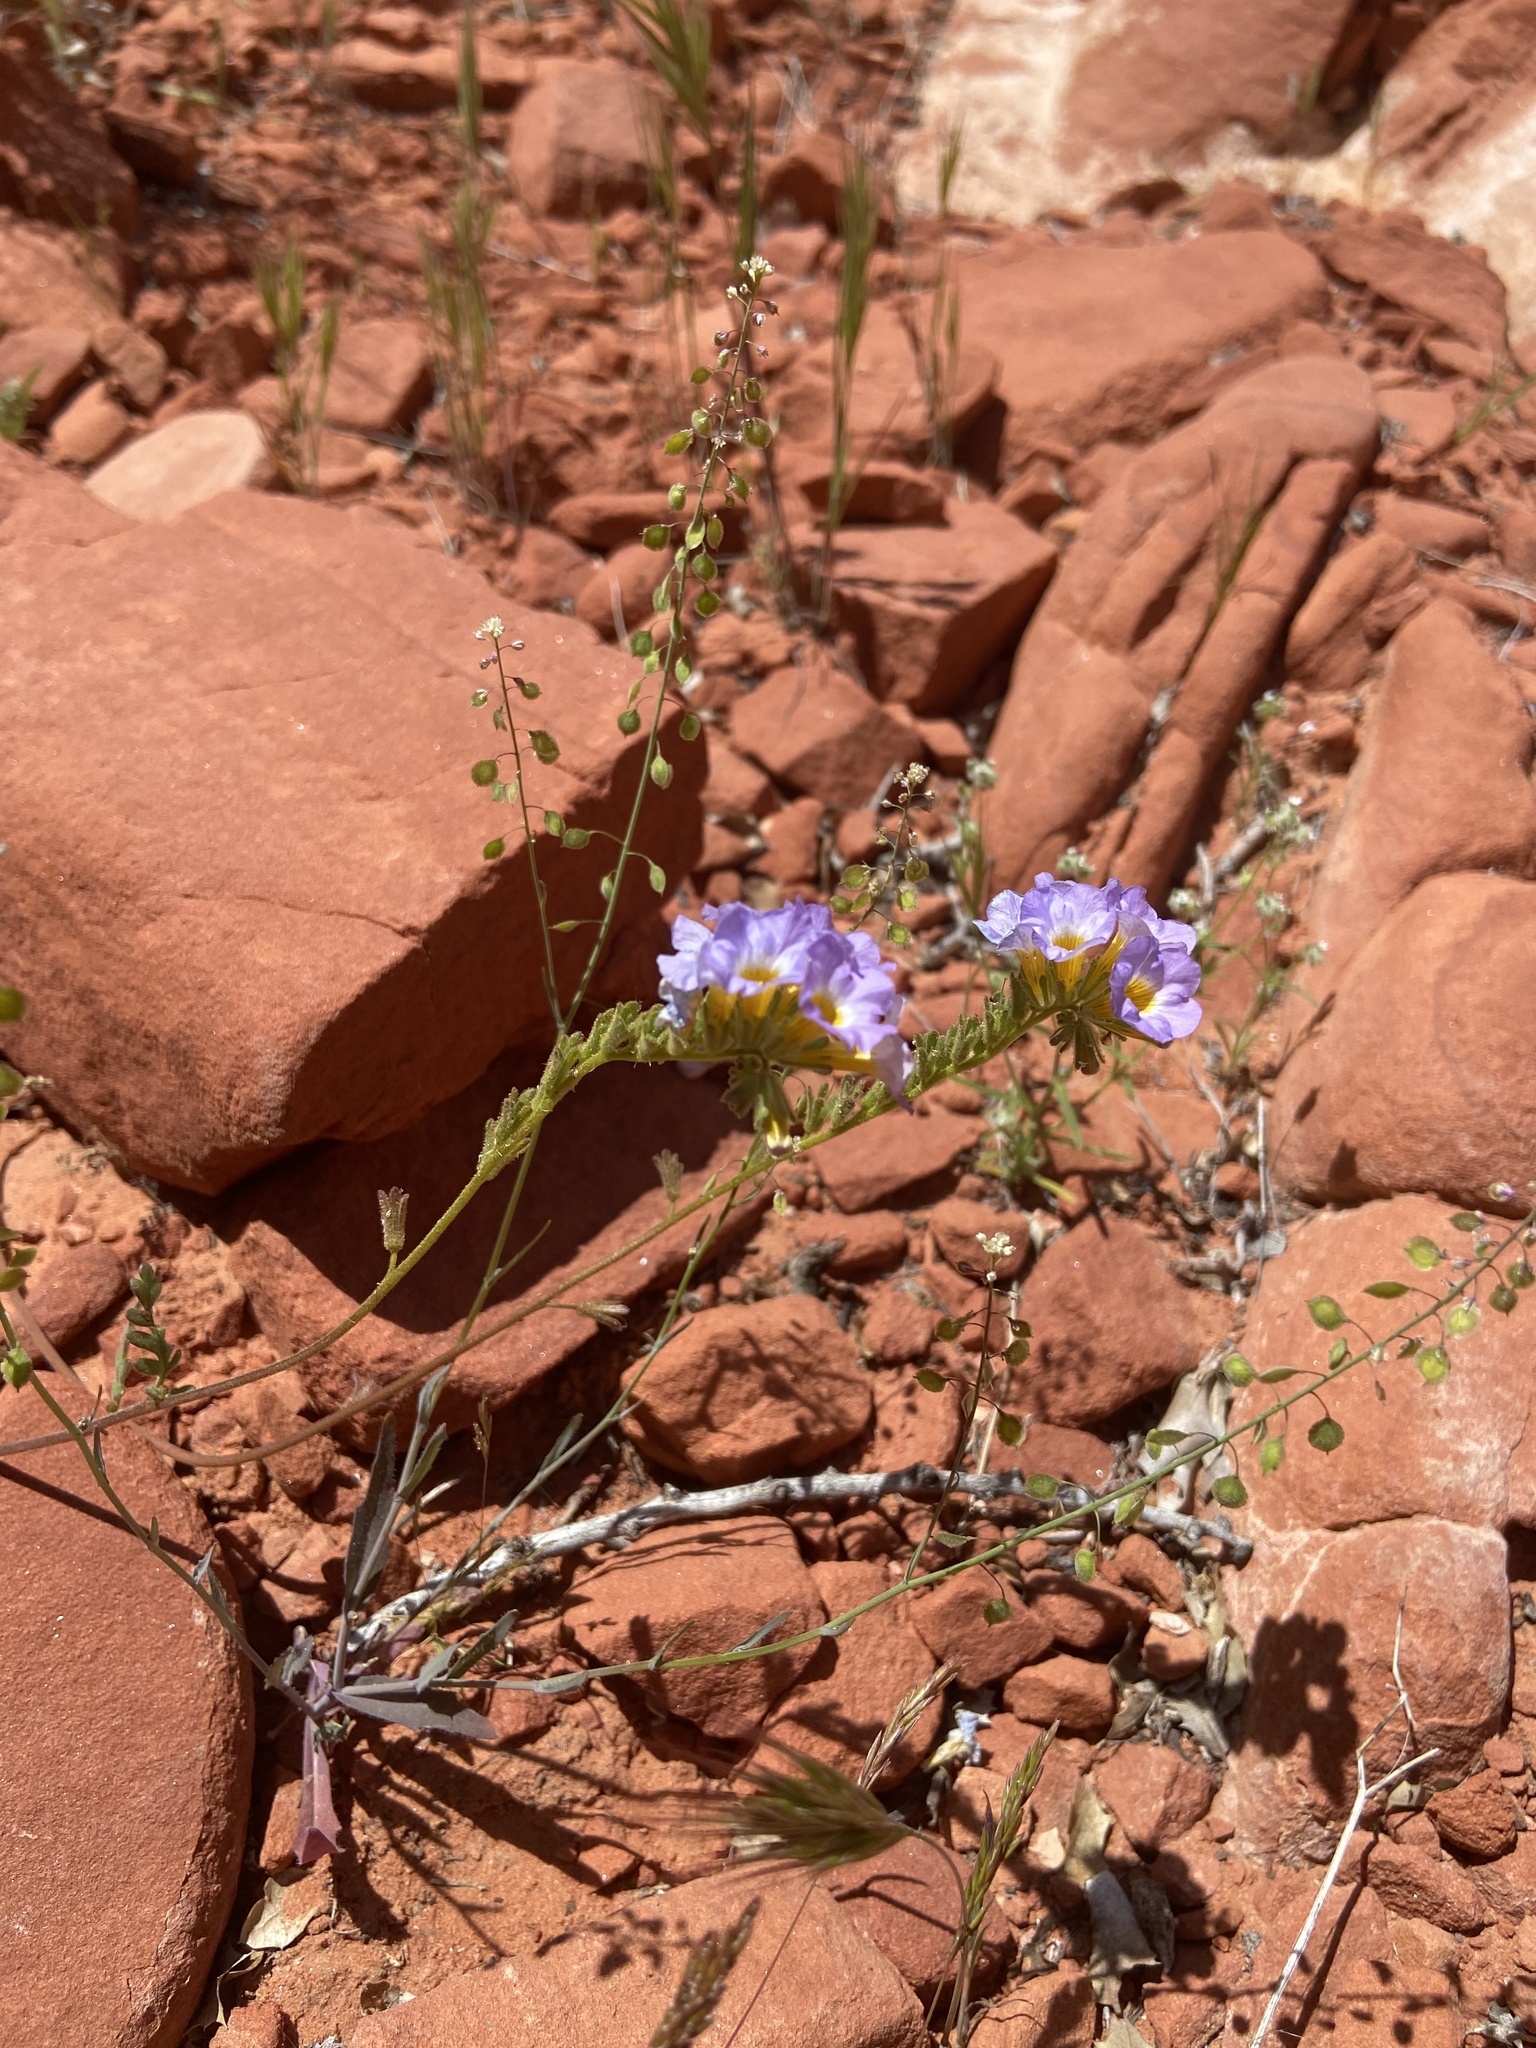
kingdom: Plantae
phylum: Tracheophyta
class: Magnoliopsida
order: Boraginales
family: Hydrophyllaceae
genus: Phacelia
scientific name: Phacelia fremontii
